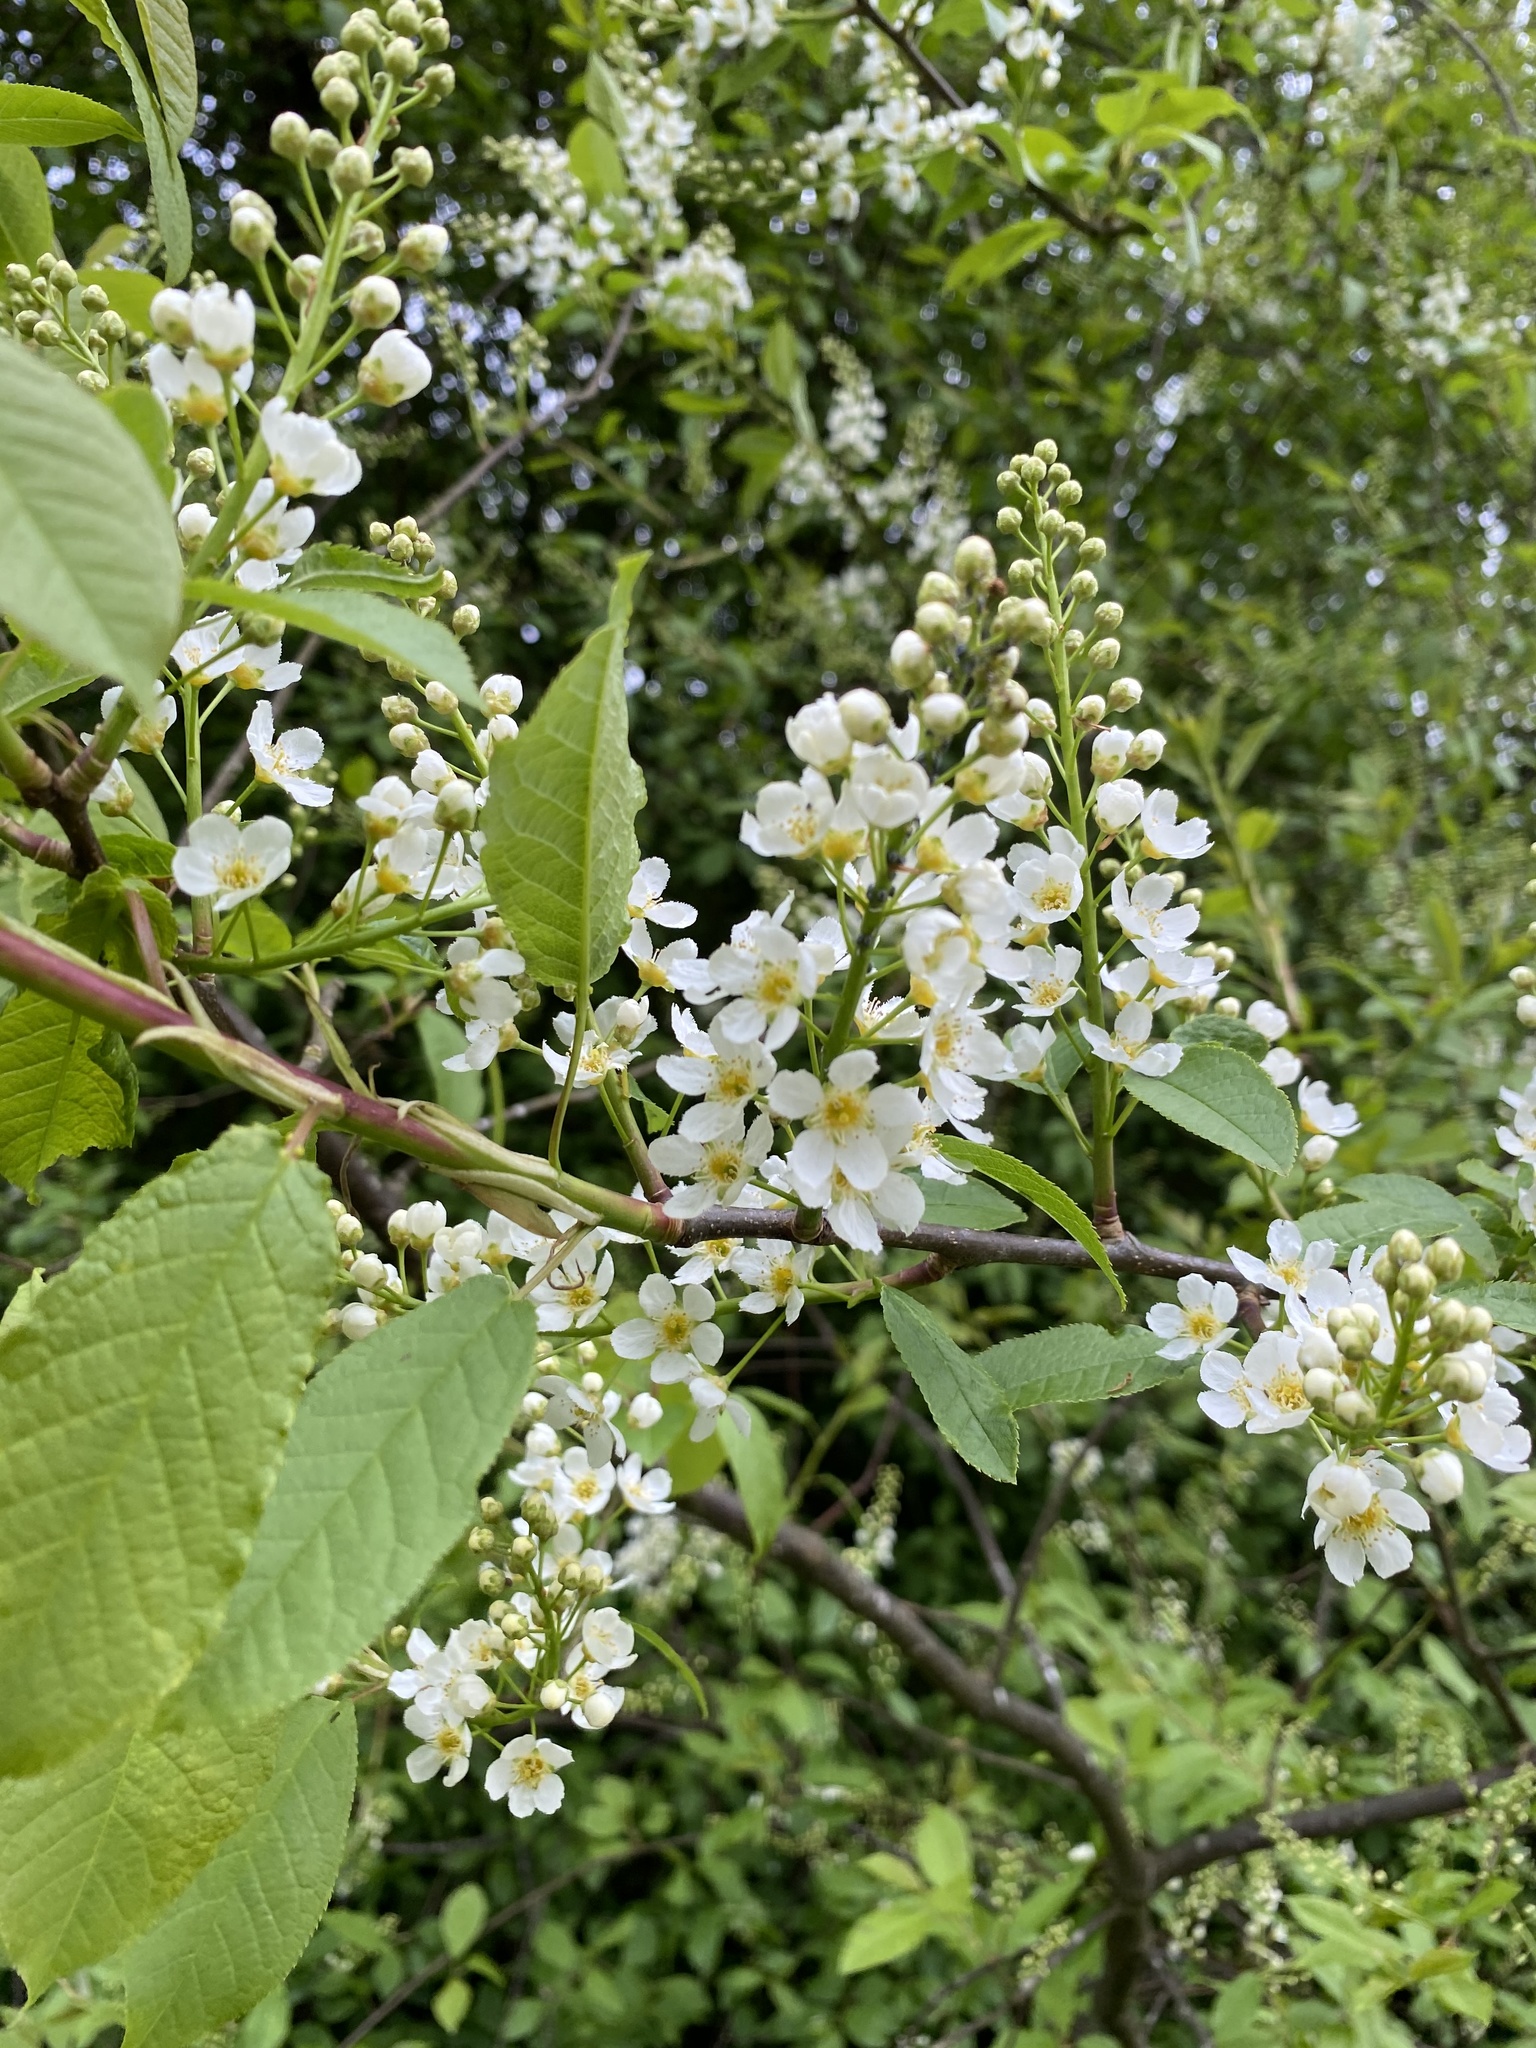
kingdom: Plantae
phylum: Tracheophyta
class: Magnoliopsida
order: Rosales
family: Rosaceae
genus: Prunus
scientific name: Prunus padus
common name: Bird cherry
